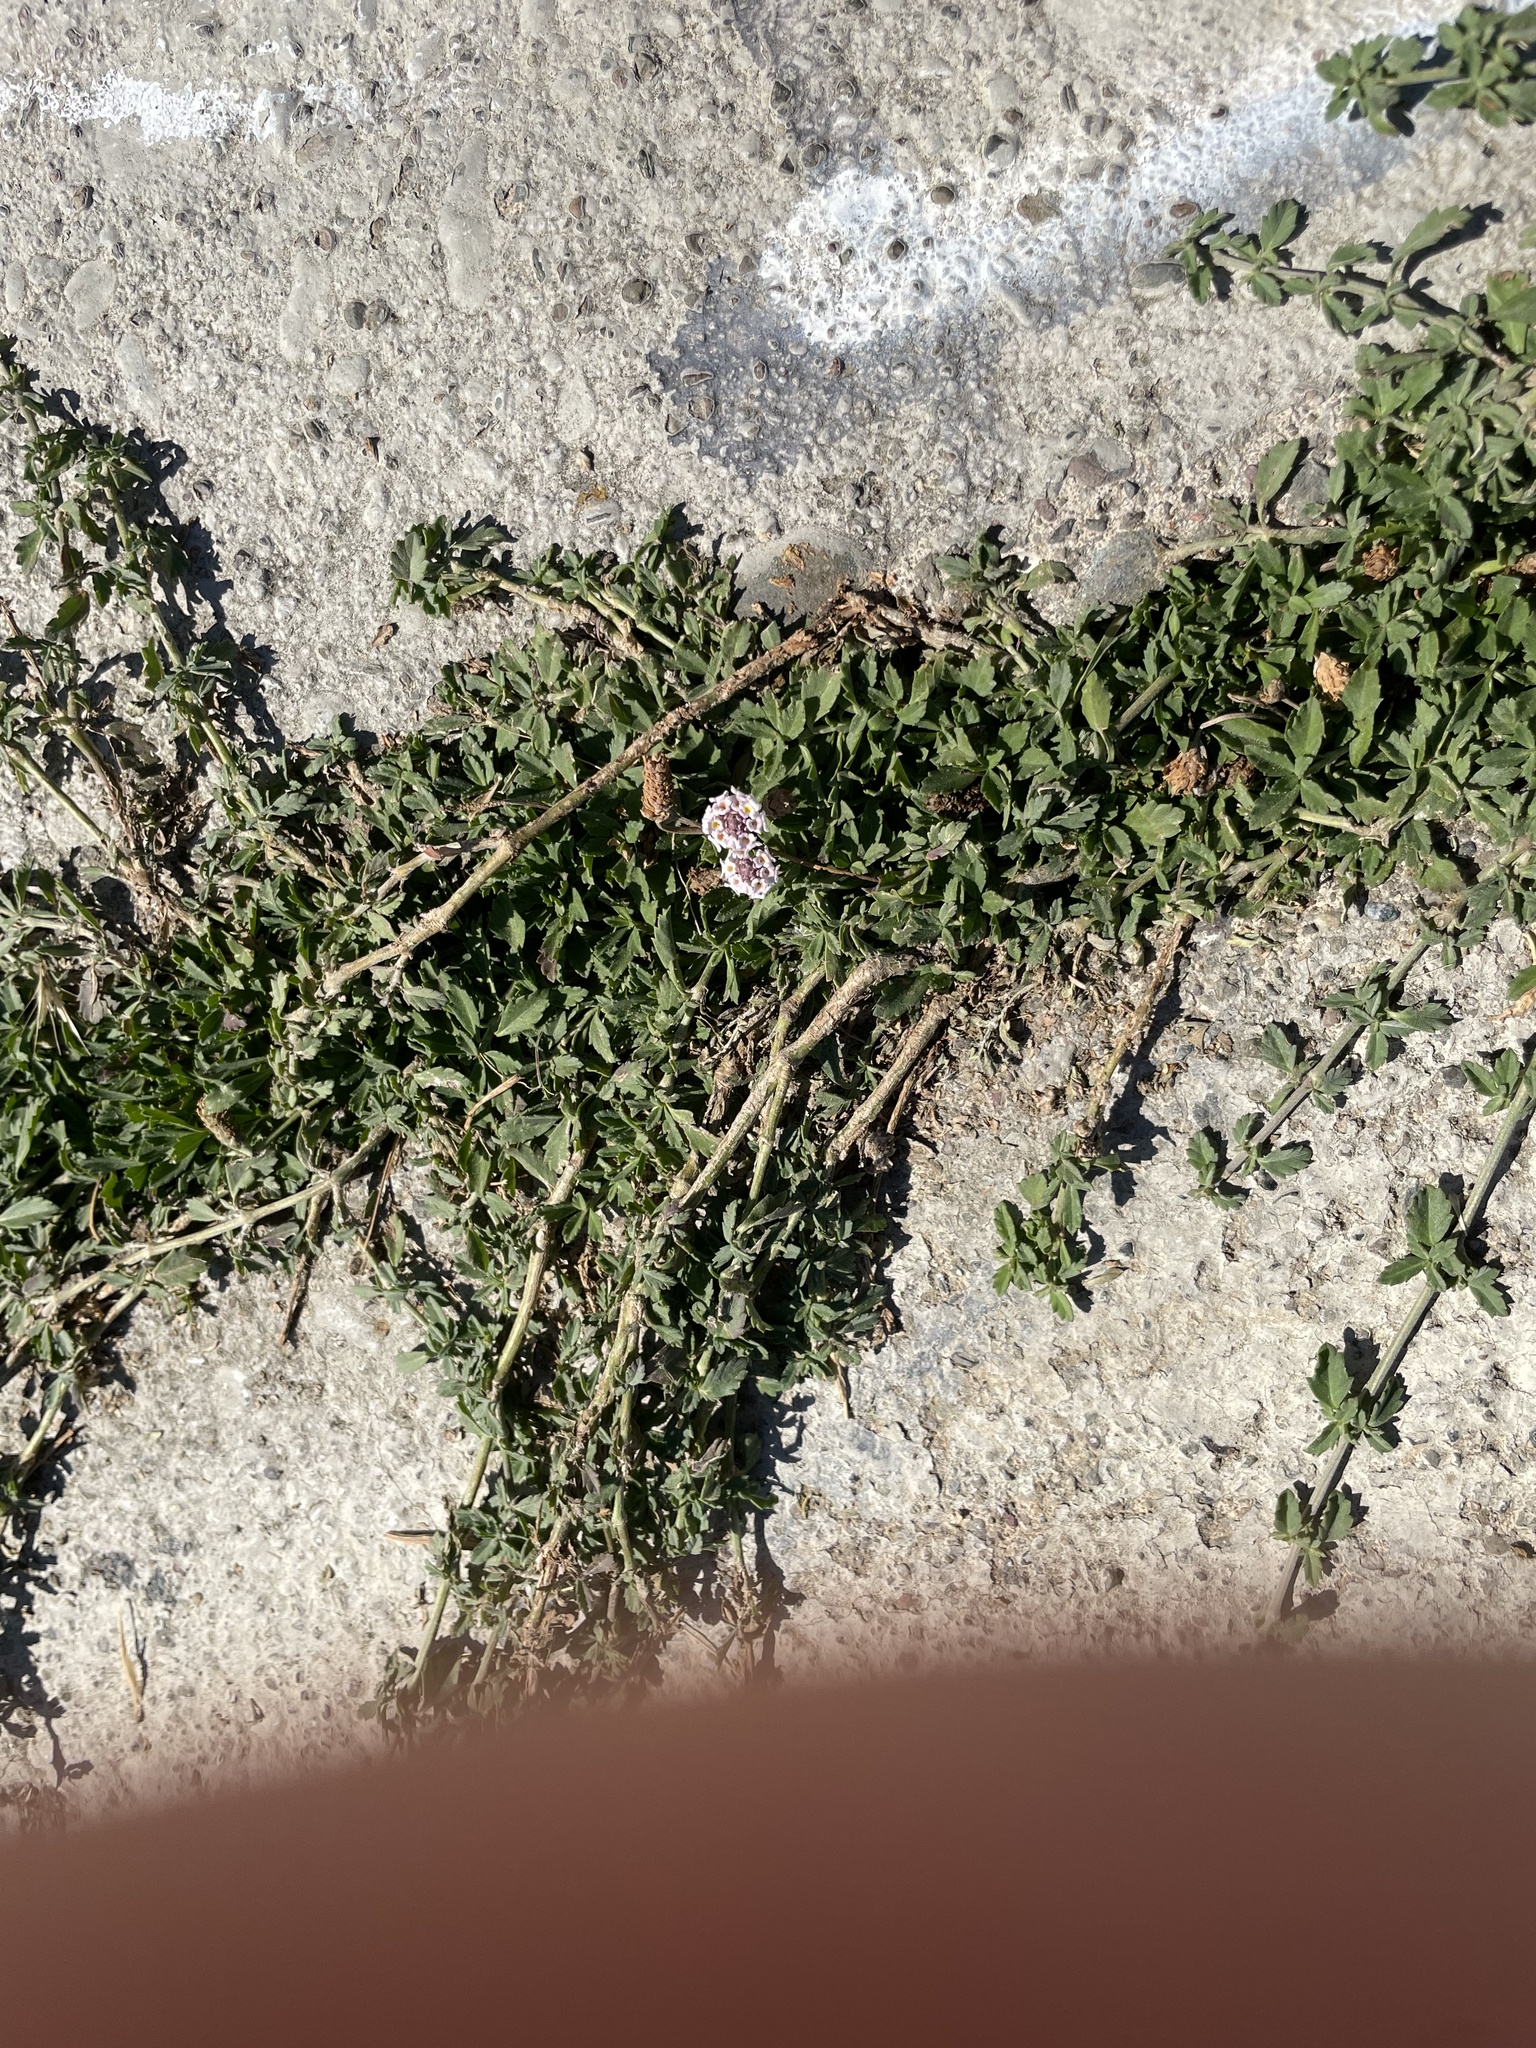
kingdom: Plantae
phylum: Tracheophyta
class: Magnoliopsida
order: Lamiales
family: Verbenaceae
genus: Phyla
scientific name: Phyla nodiflora
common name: Frogfruit
